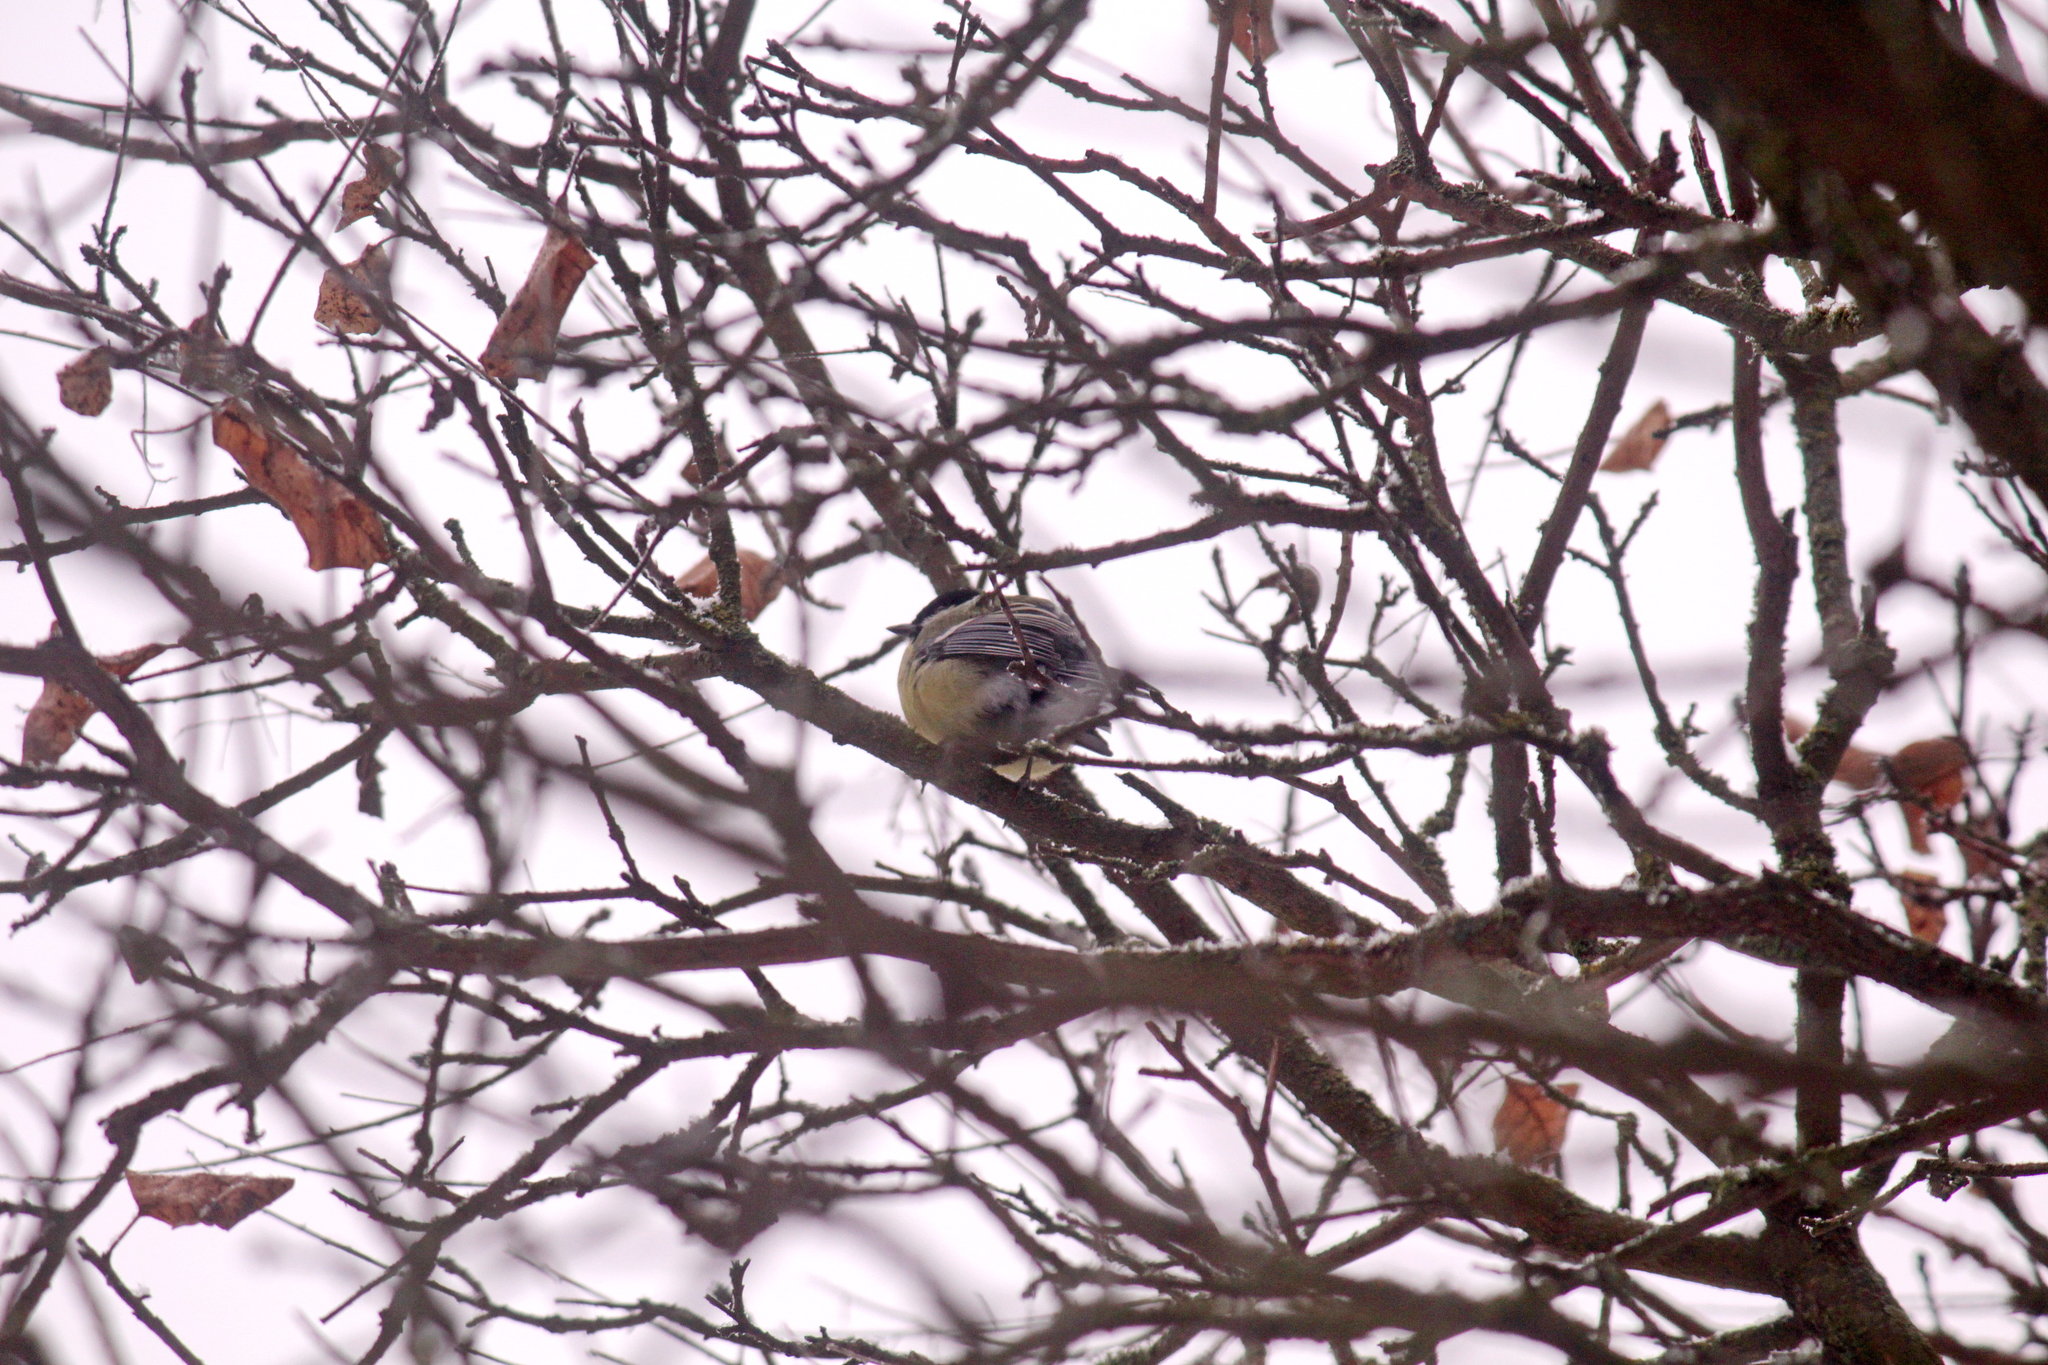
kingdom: Animalia
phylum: Chordata
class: Aves
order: Passeriformes
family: Paridae
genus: Parus
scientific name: Parus major
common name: Great tit
